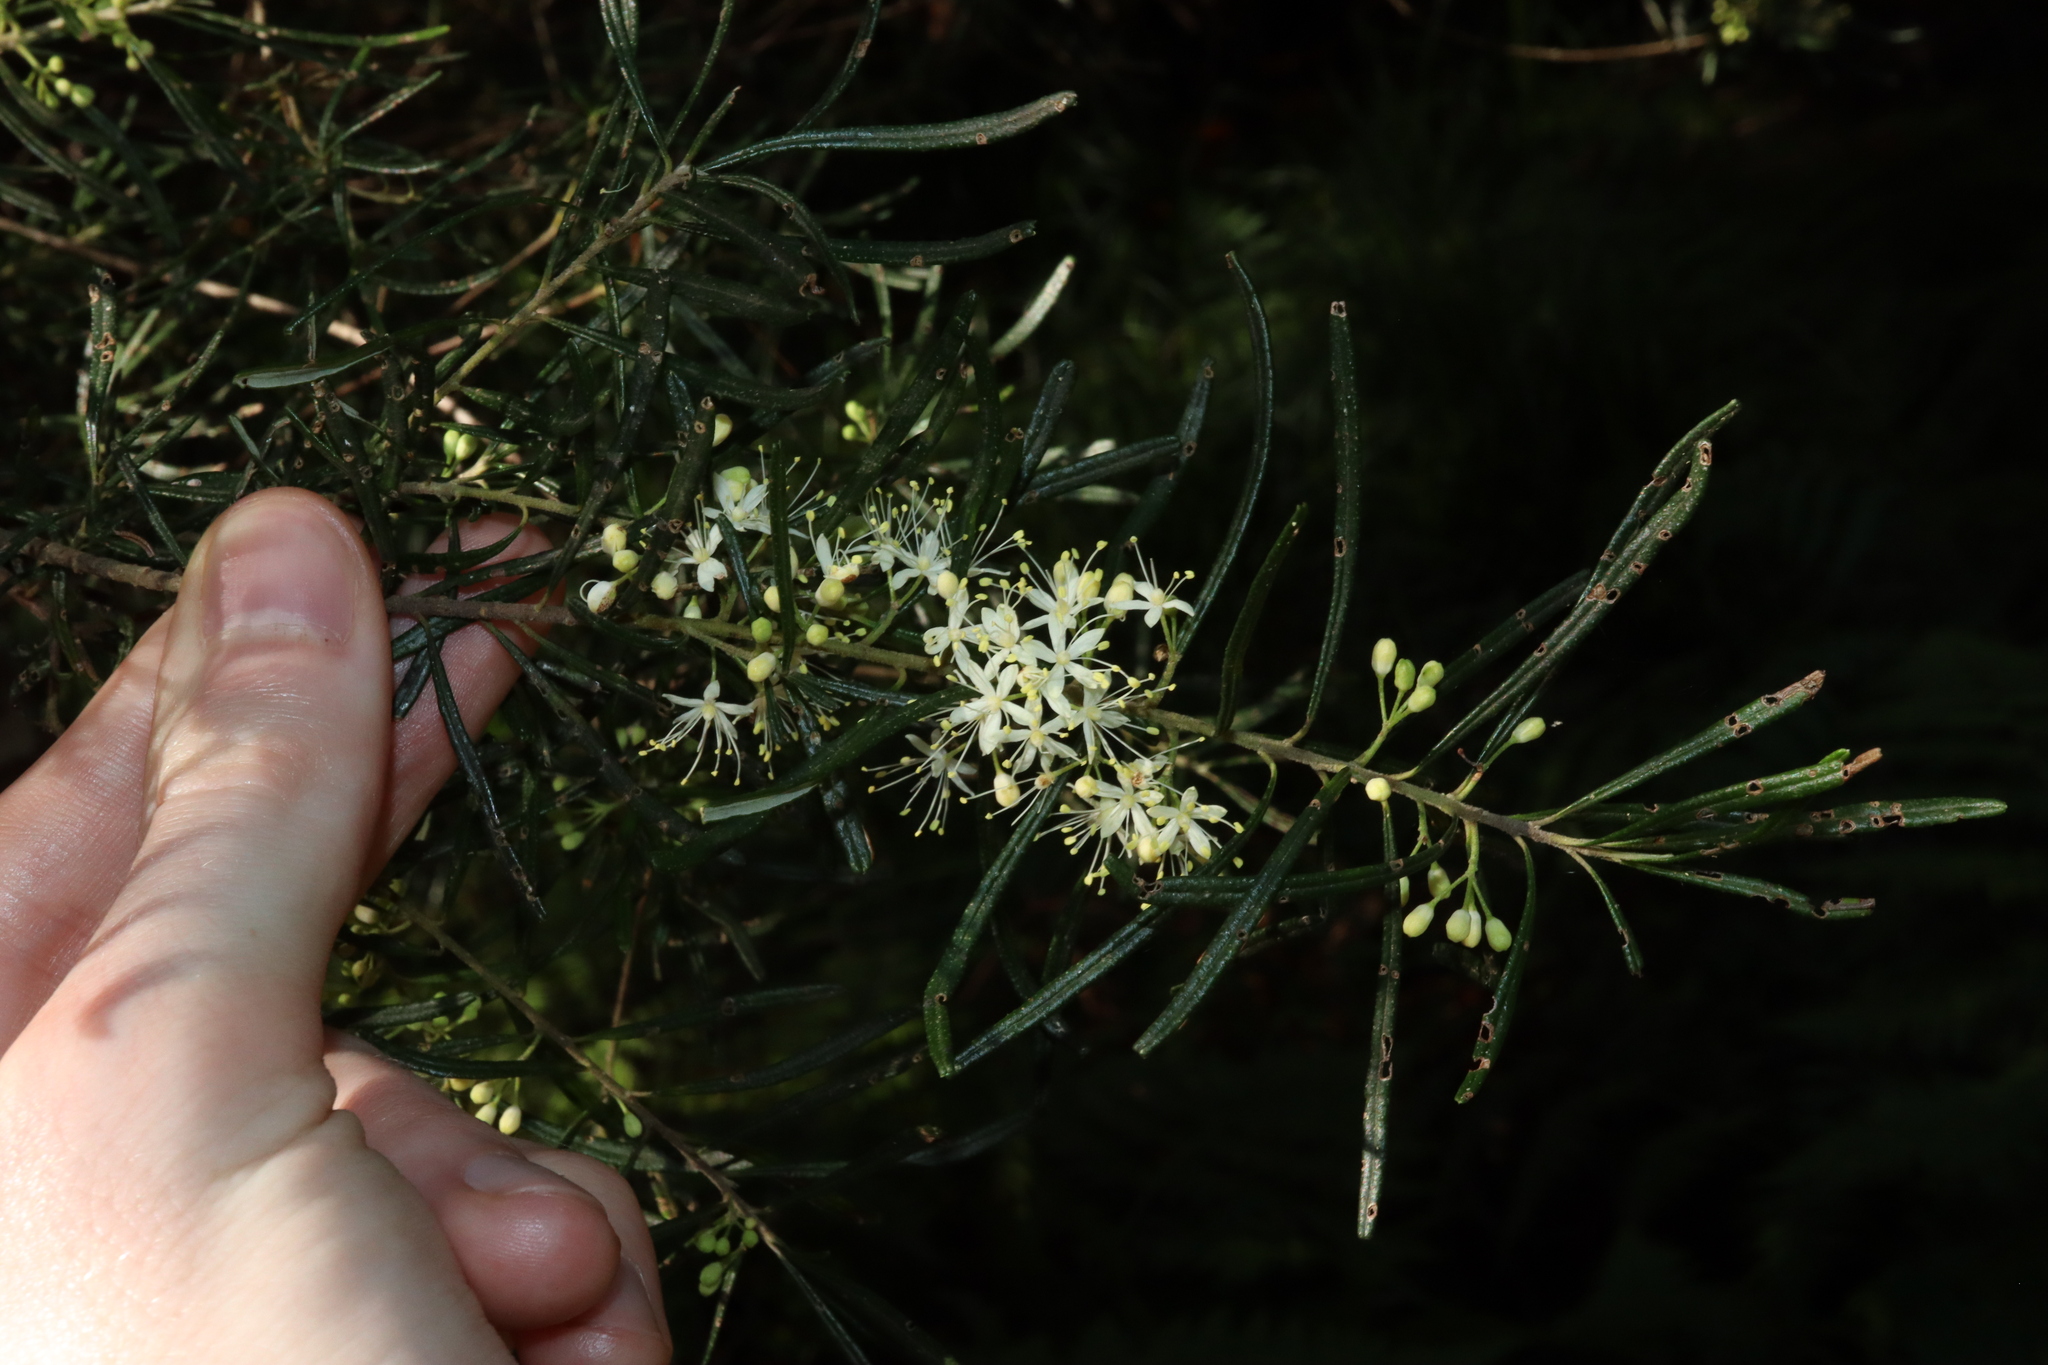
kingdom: Plantae
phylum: Tracheophyta
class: Magnoliopsida
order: Sapindales
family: Rutaceae
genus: Leionema
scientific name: Leionema dentatum
